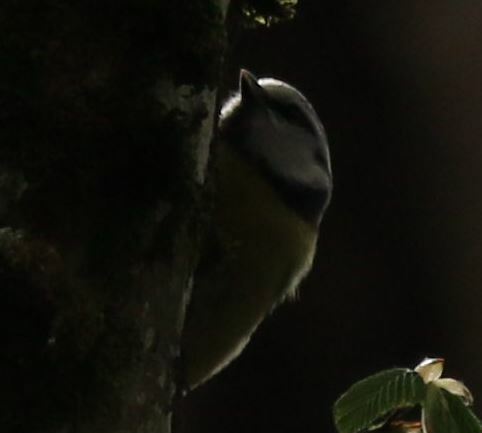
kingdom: Animalia
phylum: Chordata
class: Aves
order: Passeriformes
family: Paridae
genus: Cyanistes
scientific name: Cyanistes caeruleus
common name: Eurasian blue tit
